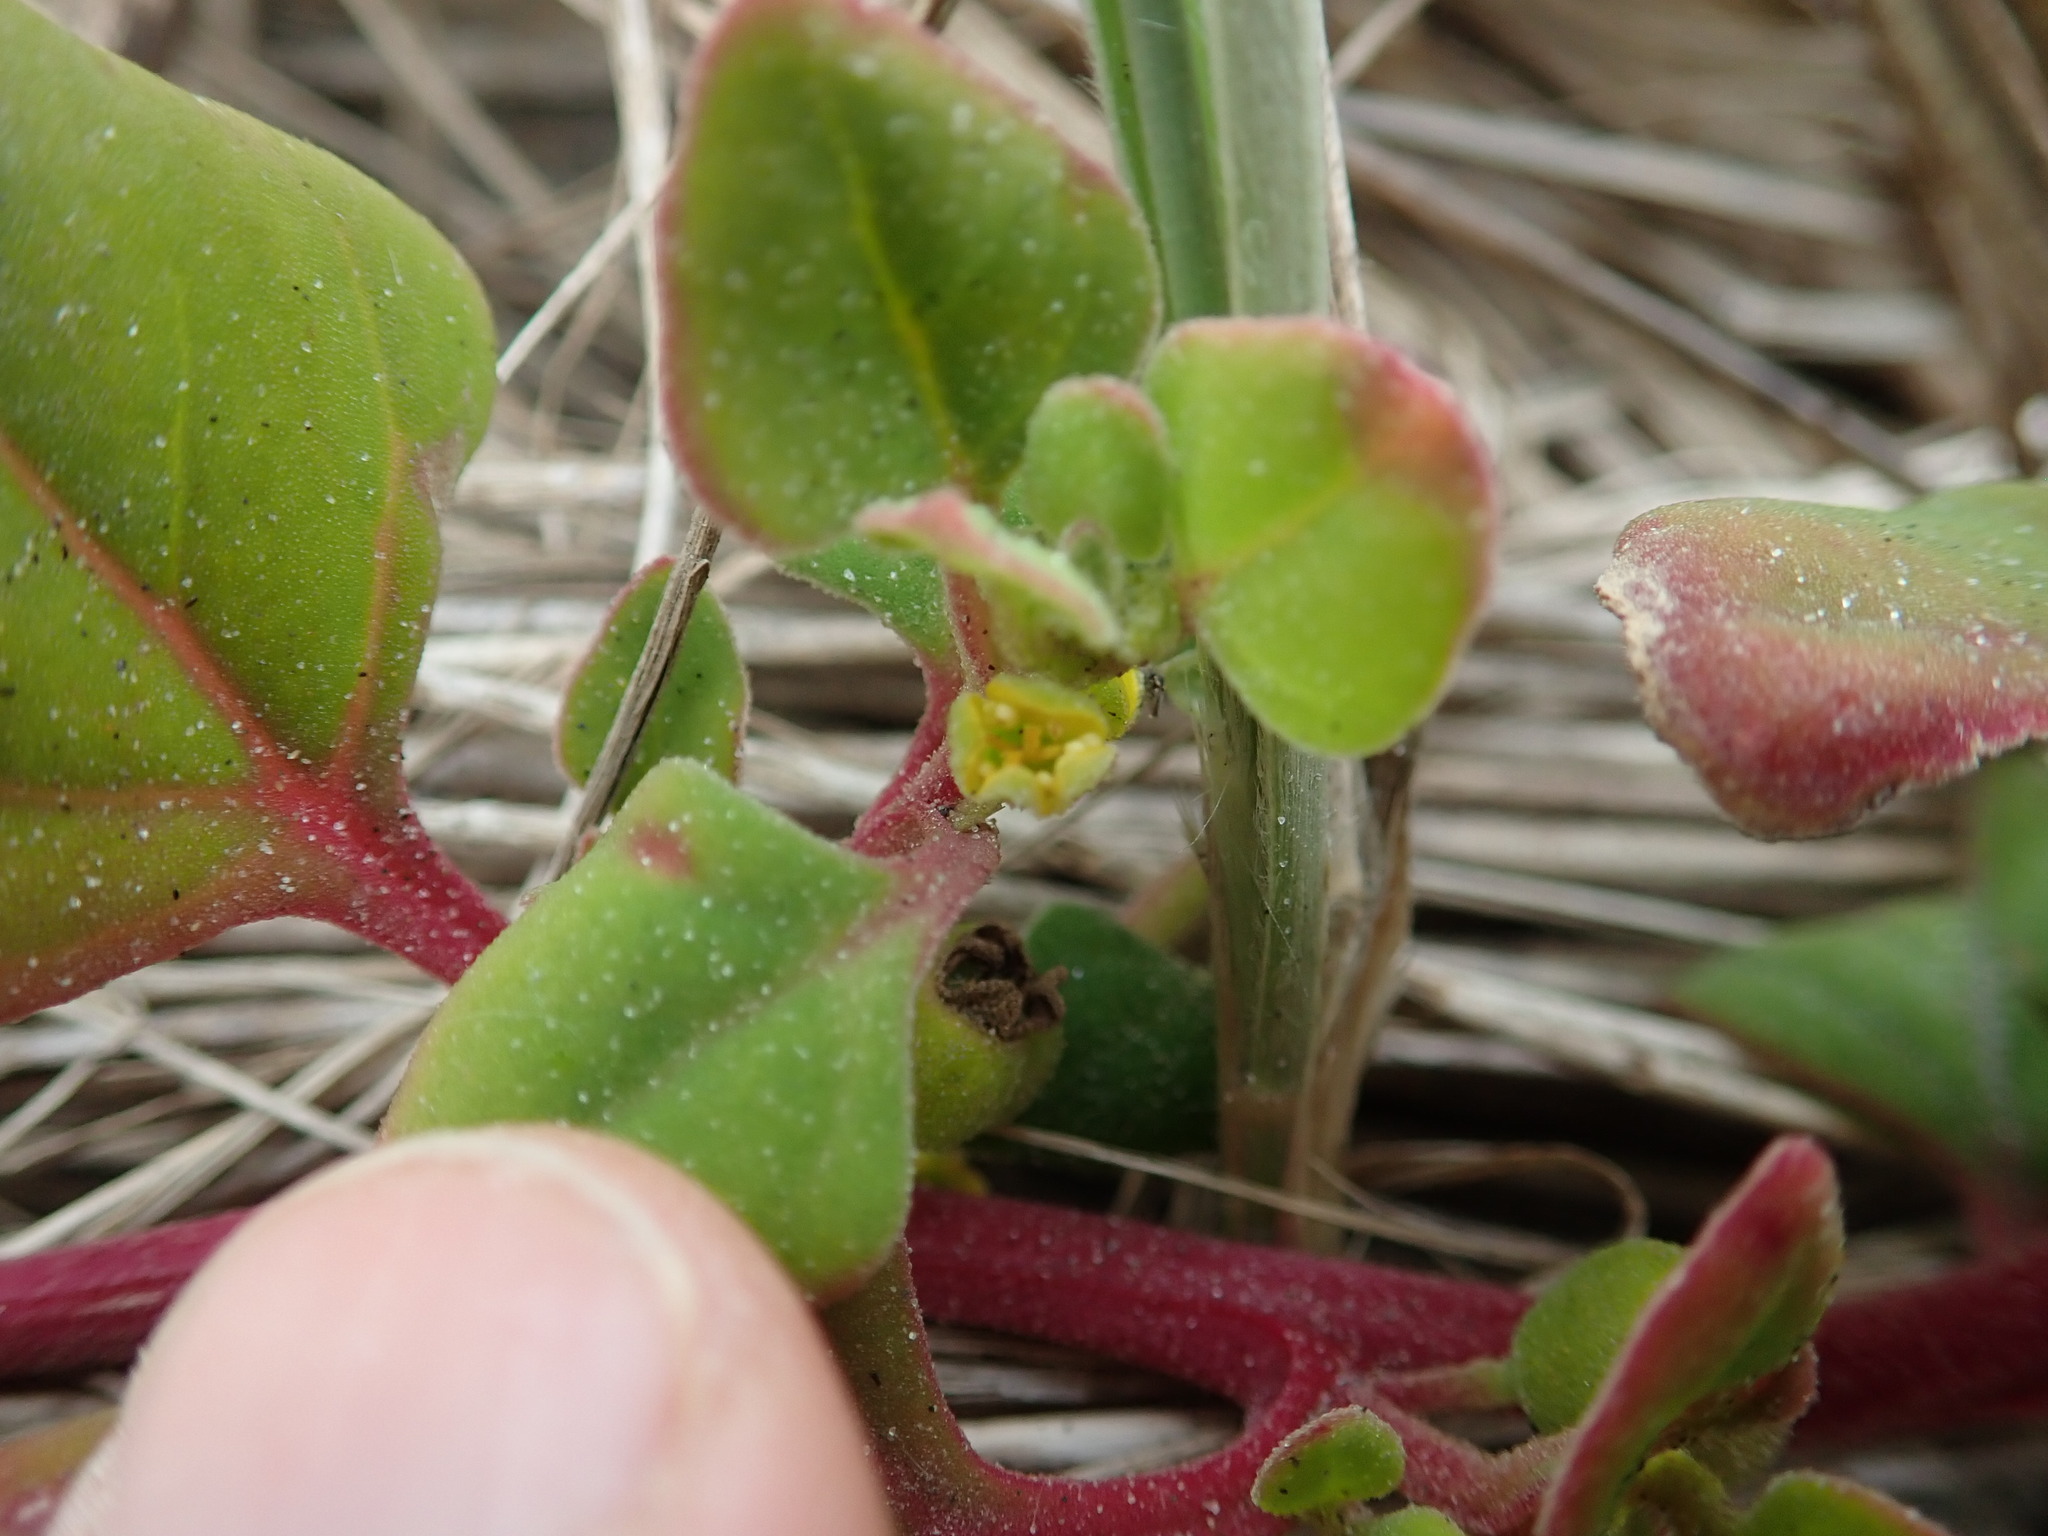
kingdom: Plantae
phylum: Tracheophyta
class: Magnoliopsida
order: Caryophyllales
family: Aizoaceae
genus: Tetragonia
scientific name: Tetragonia implexicoma
